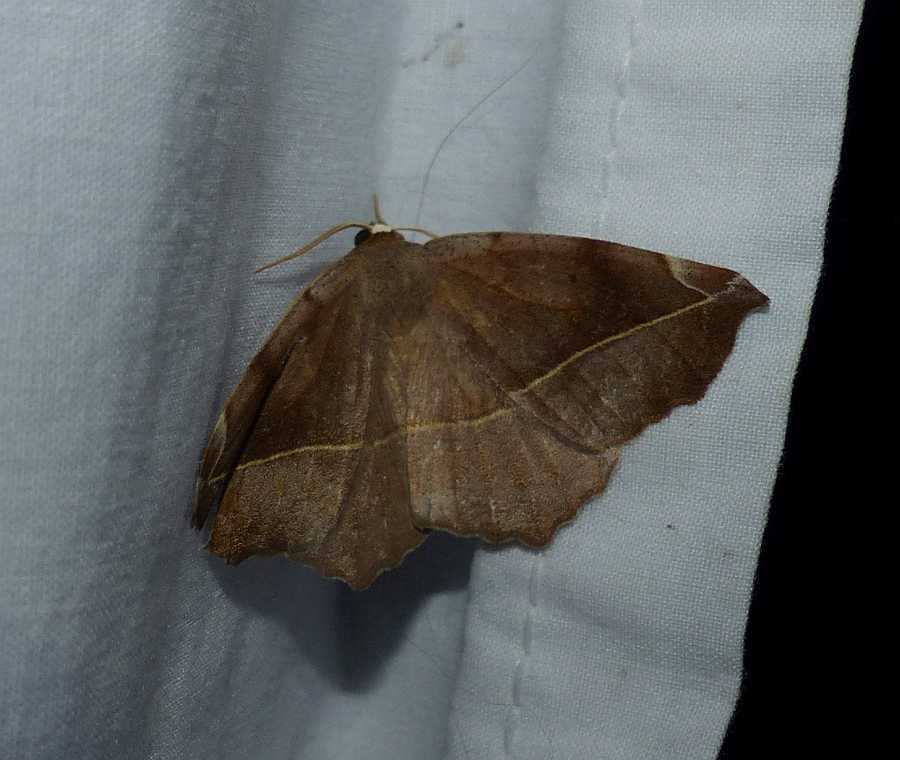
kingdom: Animalia
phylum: Arthropoda
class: Insecta
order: Lepidoptera
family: Geometridae
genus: Eutrapela
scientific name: Eutrapela clemataria
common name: Curved-toothed geometer
